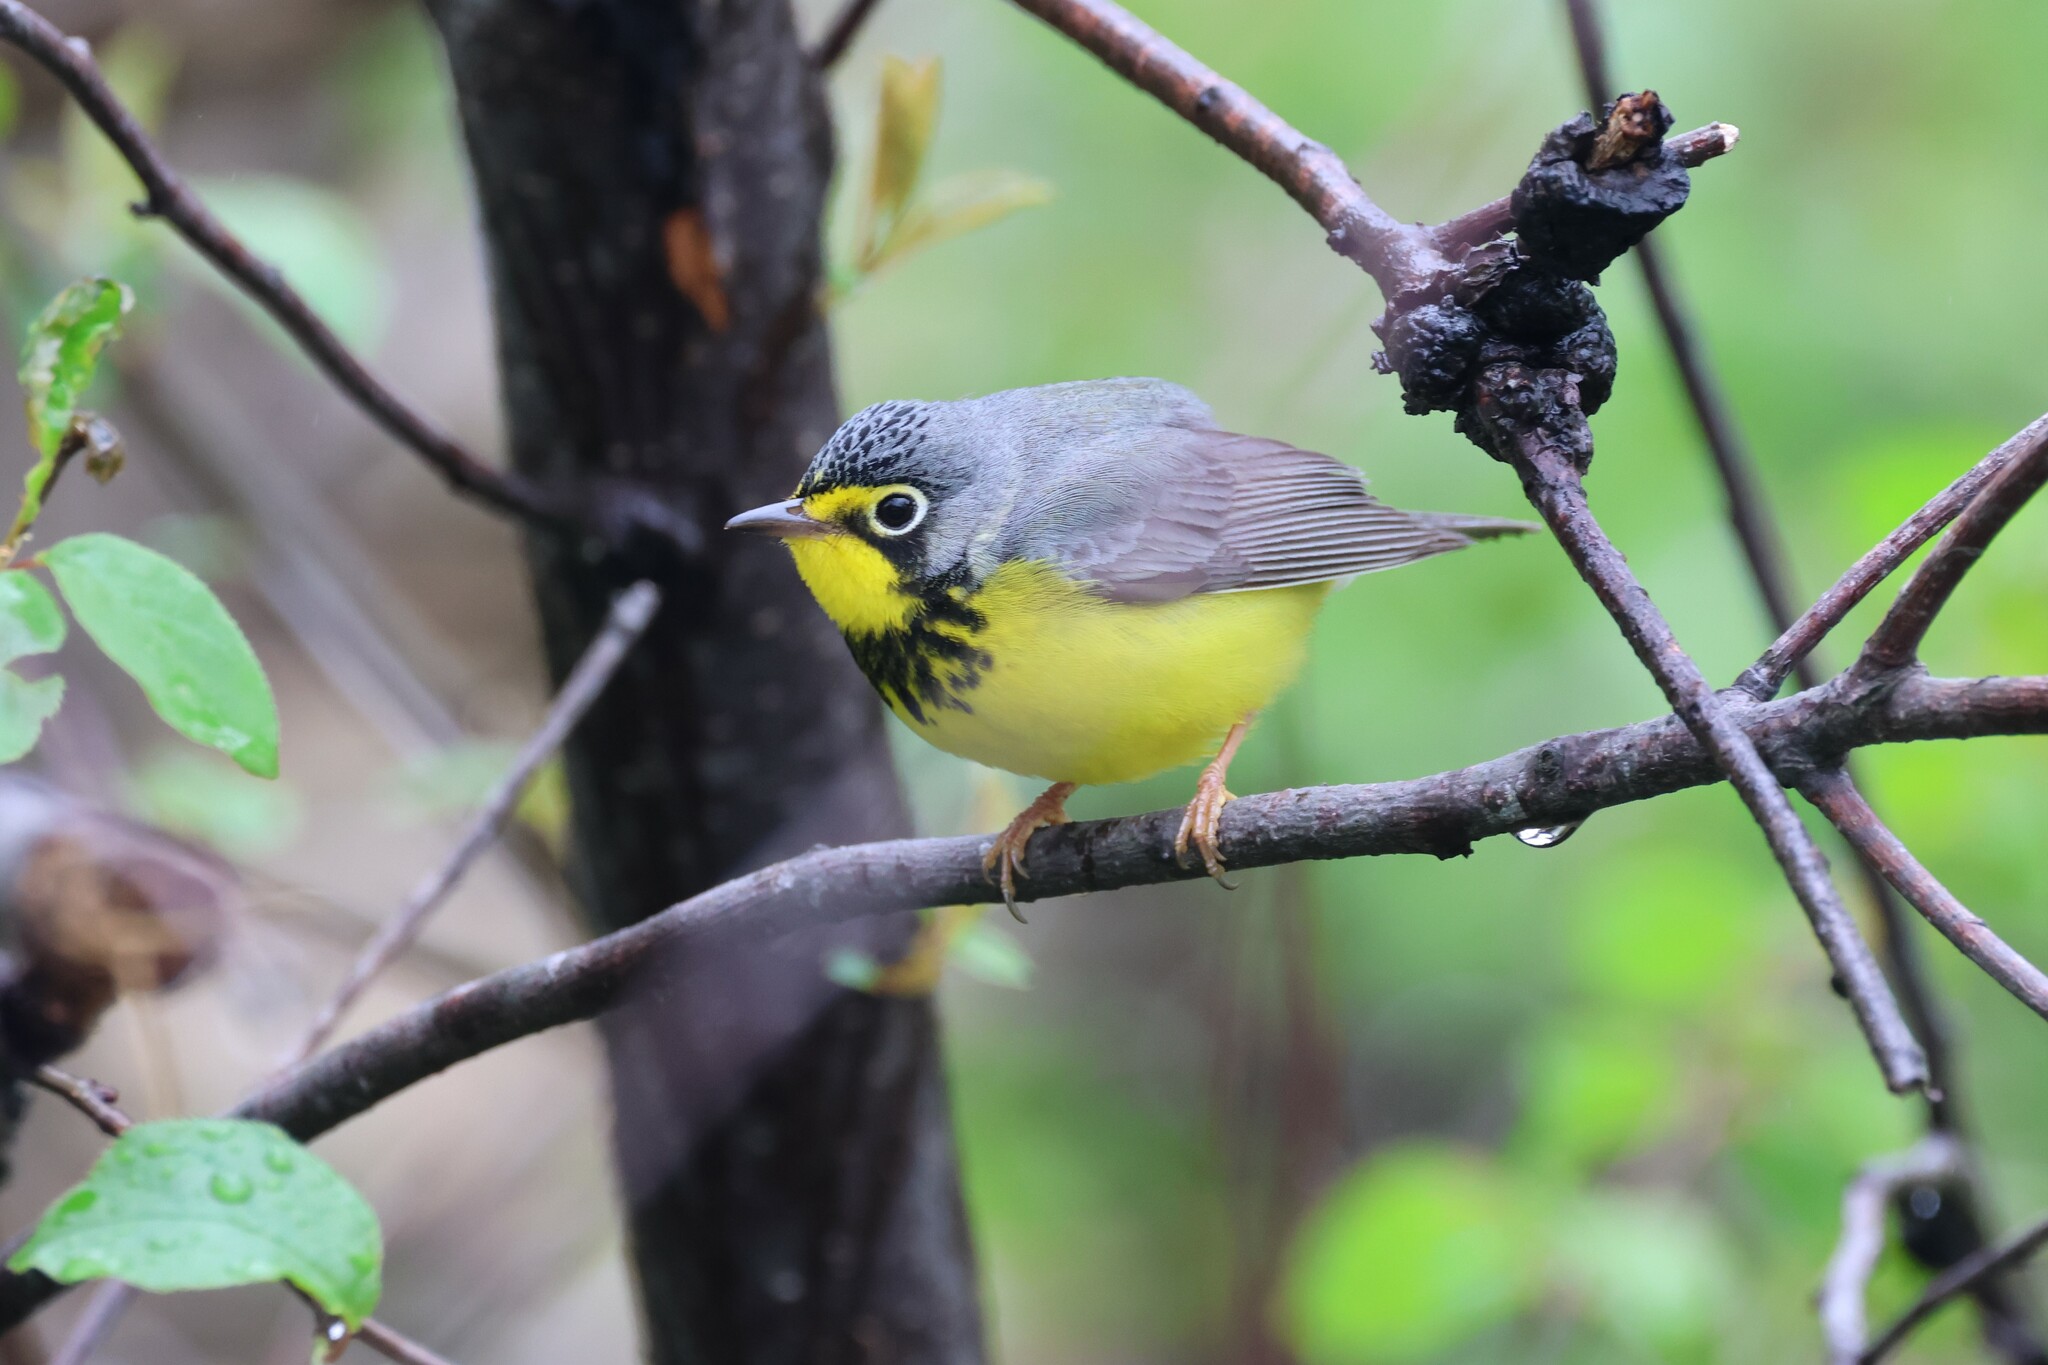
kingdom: Animalia
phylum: Chordata
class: Aves
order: Passeriformes
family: Parulidae
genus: Cardellina
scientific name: Cardellina canadensis
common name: Canada warbler
